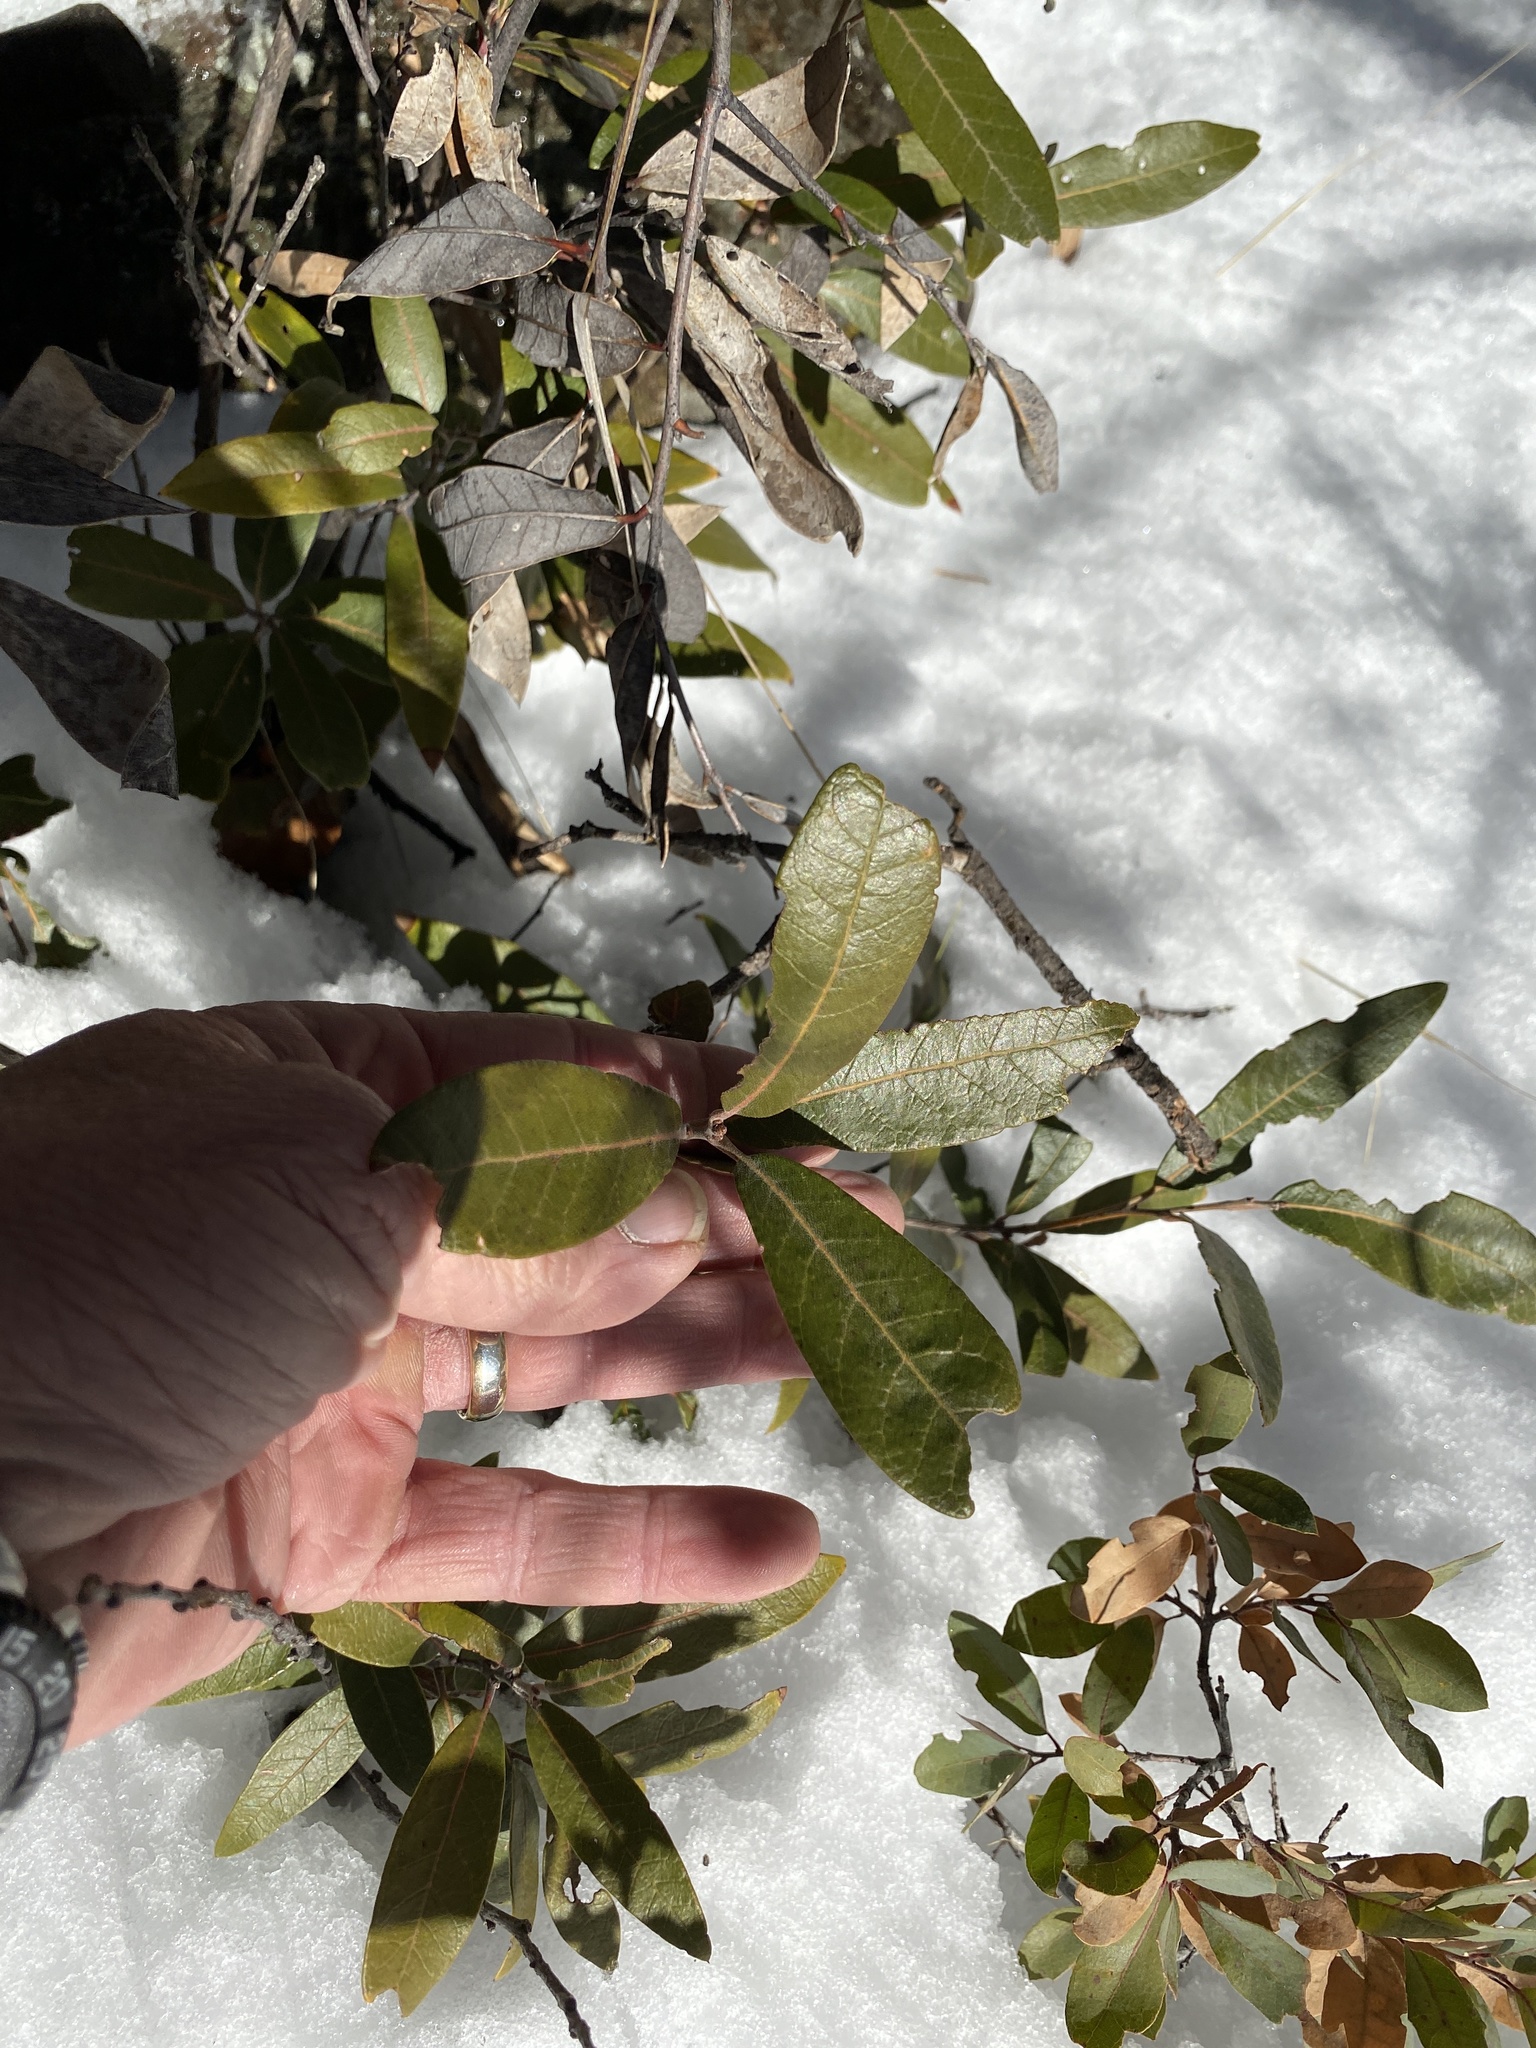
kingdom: Plantae
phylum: Tracheophyta
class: Magnoliopsida
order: Fagales
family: Fagaceae
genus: Quercus
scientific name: Quercus hypoleucoides
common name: Silverleaf oak
